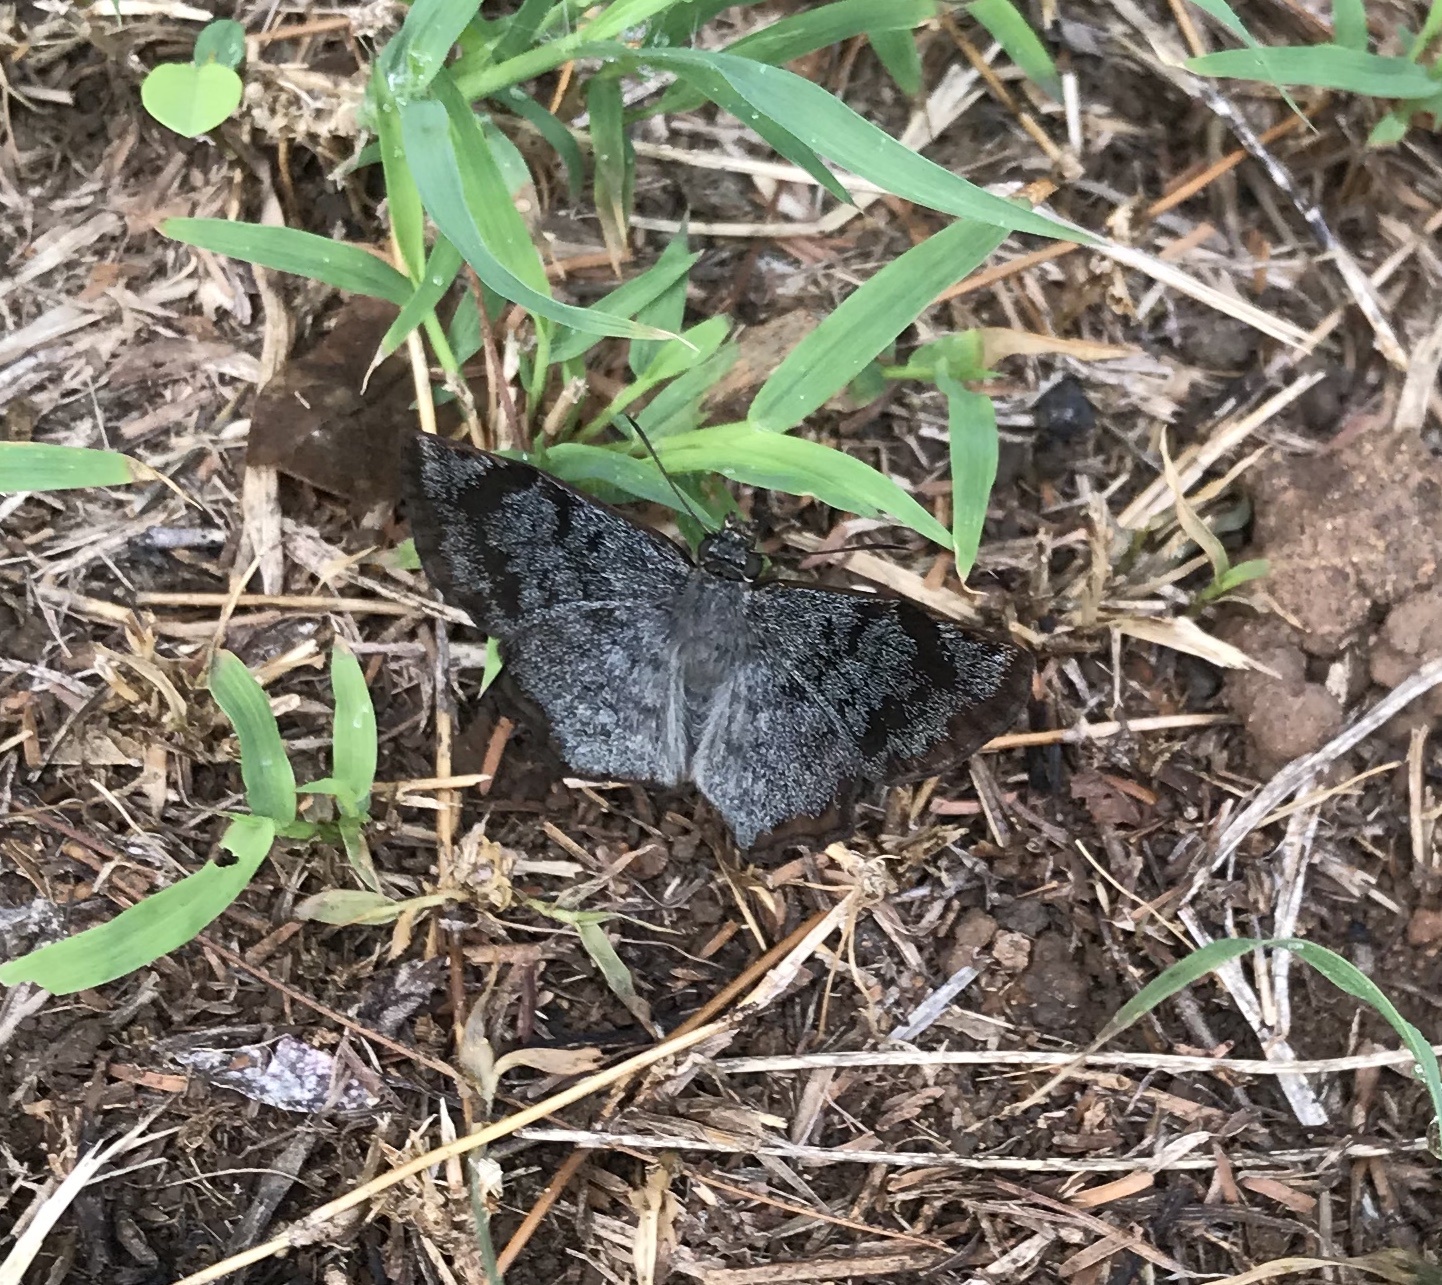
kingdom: Animalia
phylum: Arthropoda
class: Insecta
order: Lepidoptera
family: Hesperiidae
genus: Antigonus
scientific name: Antigonus erosus
